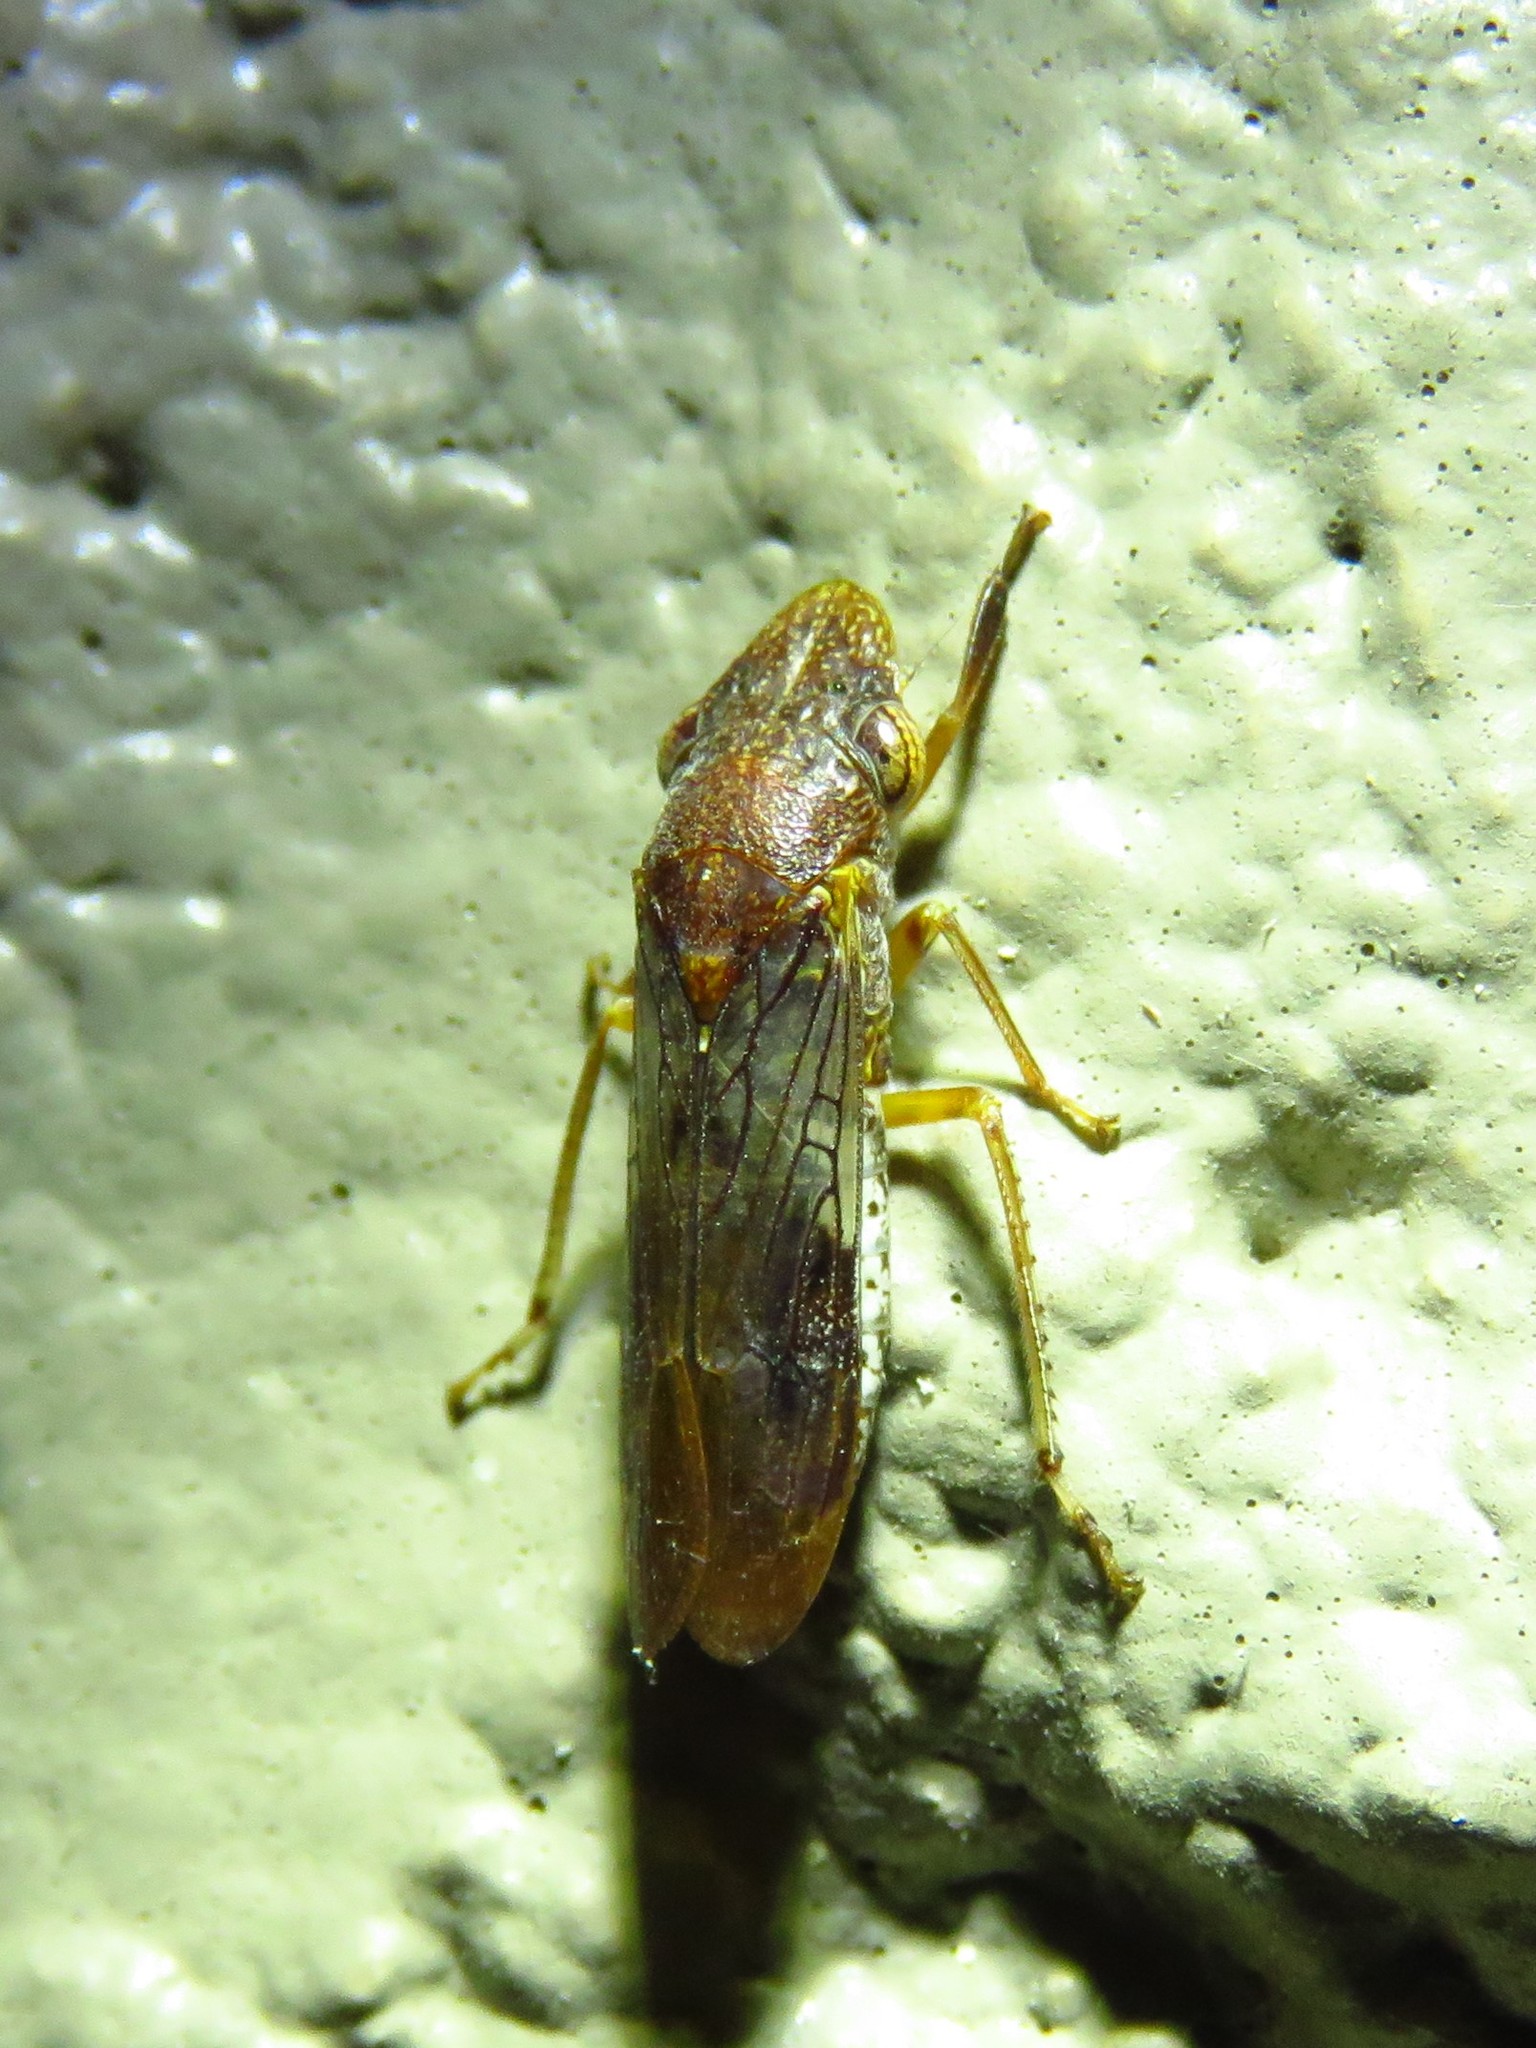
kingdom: Animalia
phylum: Arthropoda
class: Insecta
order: Hemiptera
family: Cicadellidae
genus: Homalodisca
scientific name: Homalodisca vitripennis
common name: Glassy-winged sharpshooter
